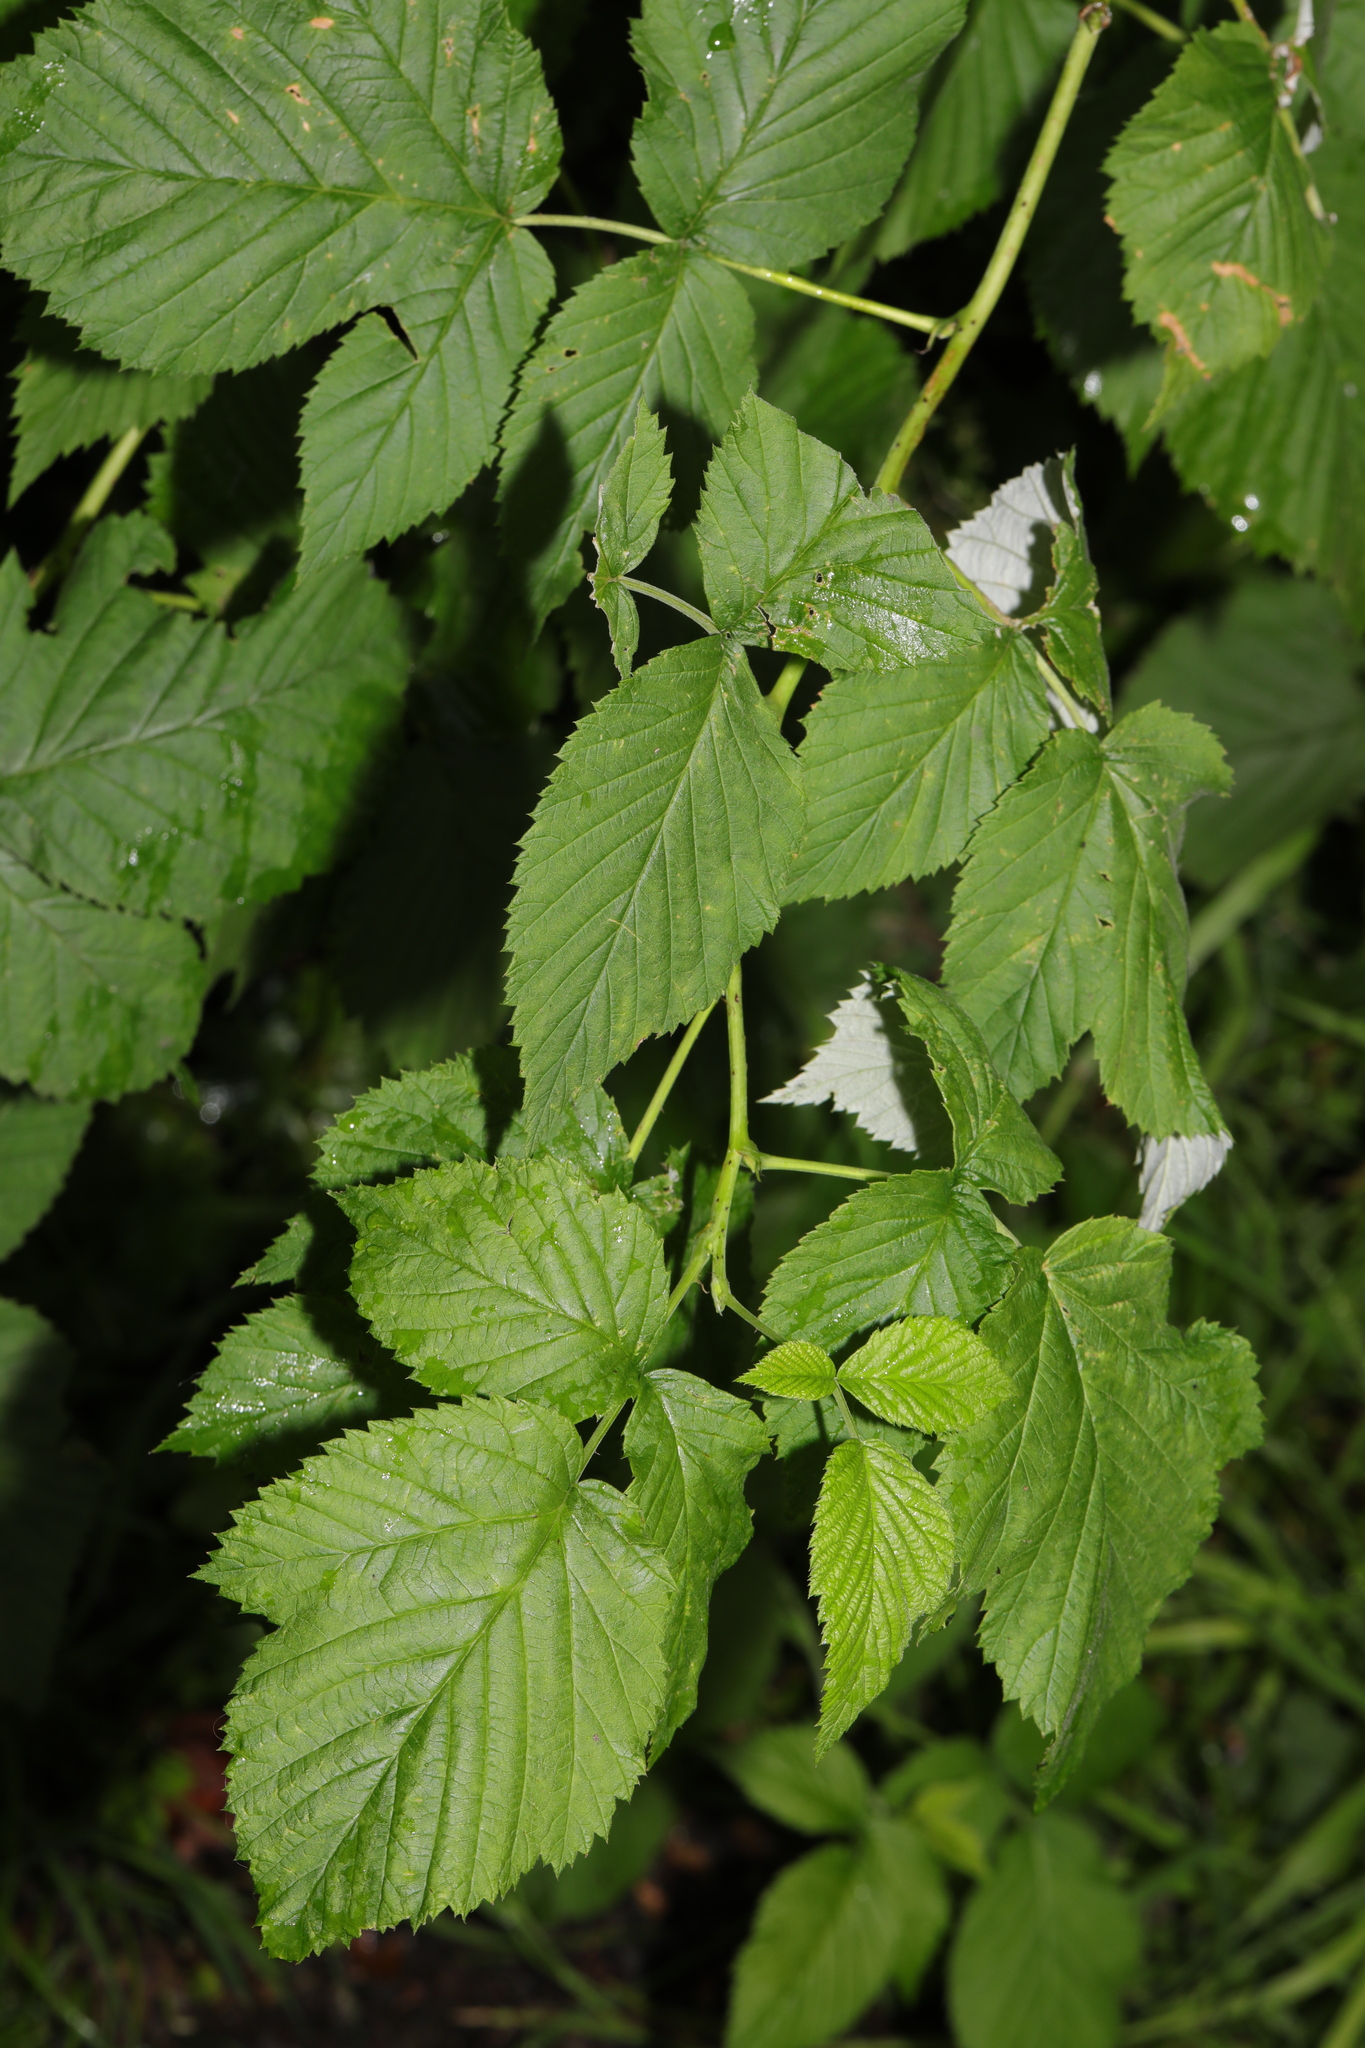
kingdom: Plantae
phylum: Tracheophyta
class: Magnoliopsida
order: Rosales
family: Rosaceae
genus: Rubus
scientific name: Rubus idaeus
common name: Raspberry
